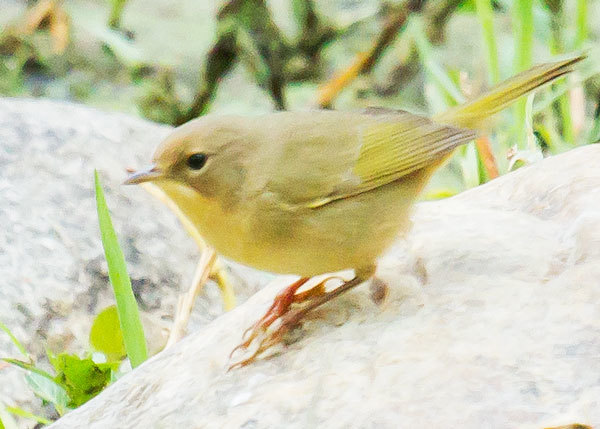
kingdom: Animalia
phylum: Chordata
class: Aves
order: Passeriformes
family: Parulidae
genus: Geothlypis
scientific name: Geothlypis trichas
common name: Common yellowthroat
